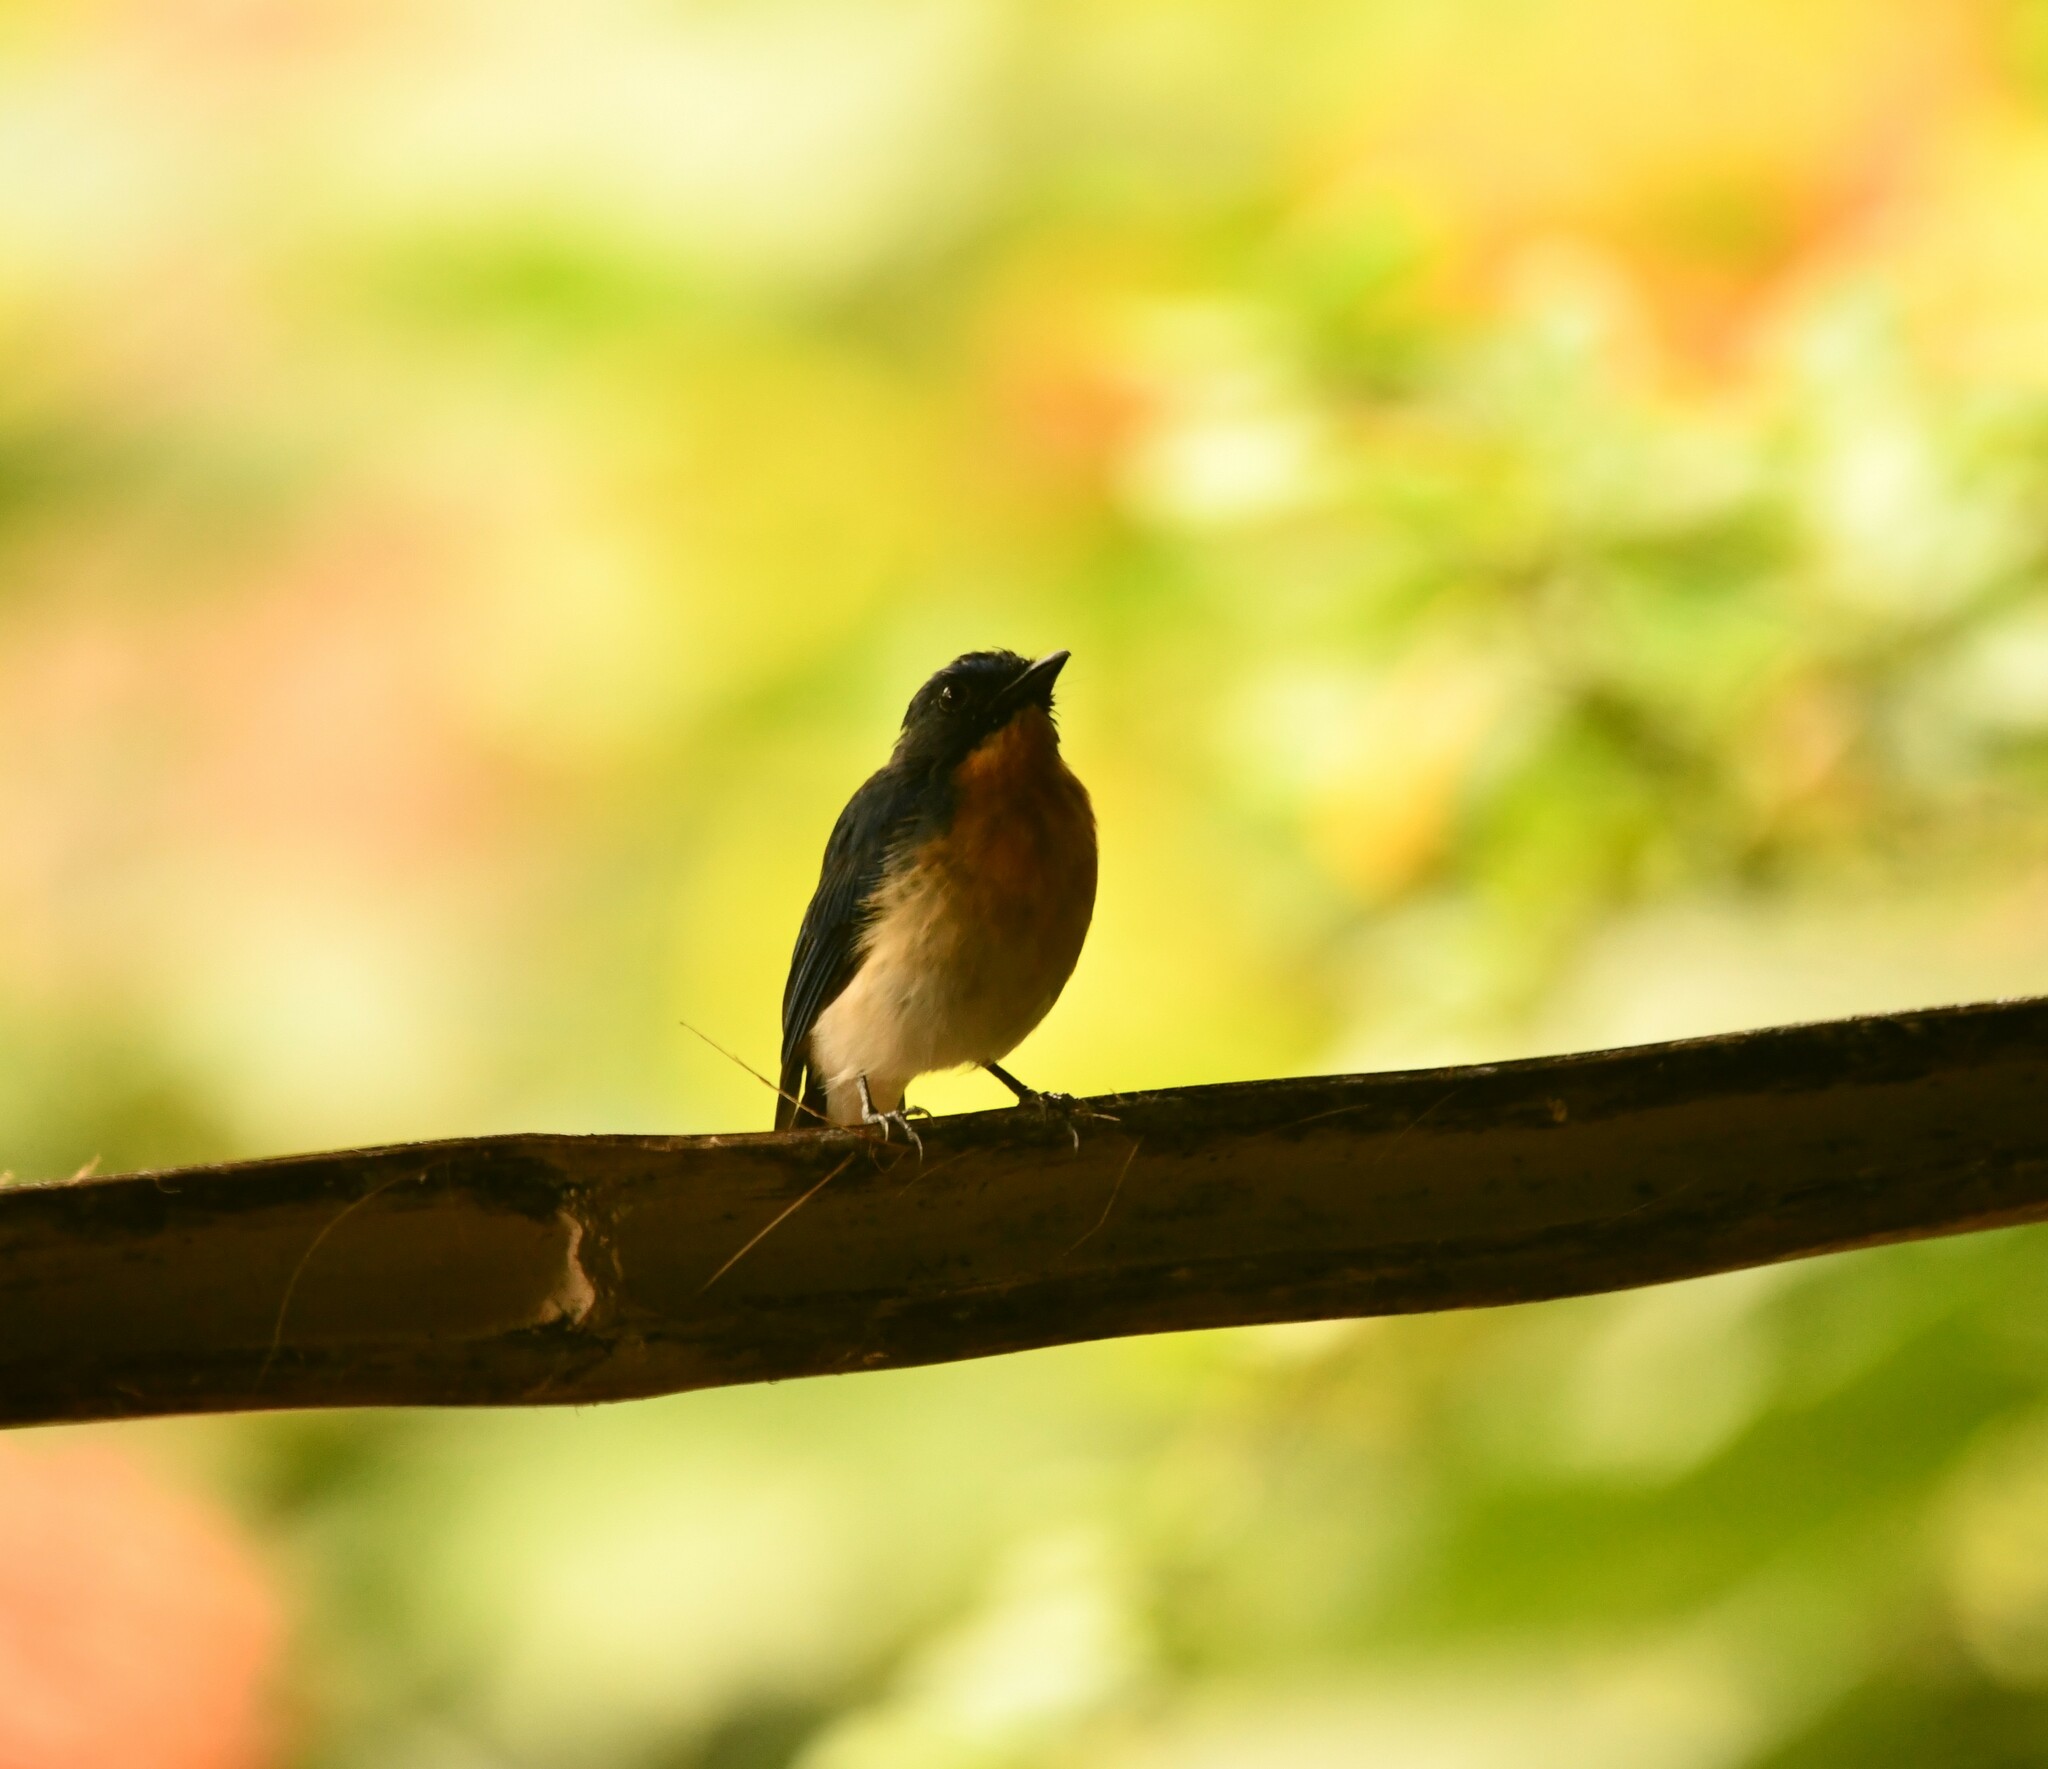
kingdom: Animalia
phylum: Chordata
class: Aves
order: Passeriformes
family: Muscicapidae
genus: Cyornis
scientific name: Cyornis tickelliae
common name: Tickell's blue flycatcher
